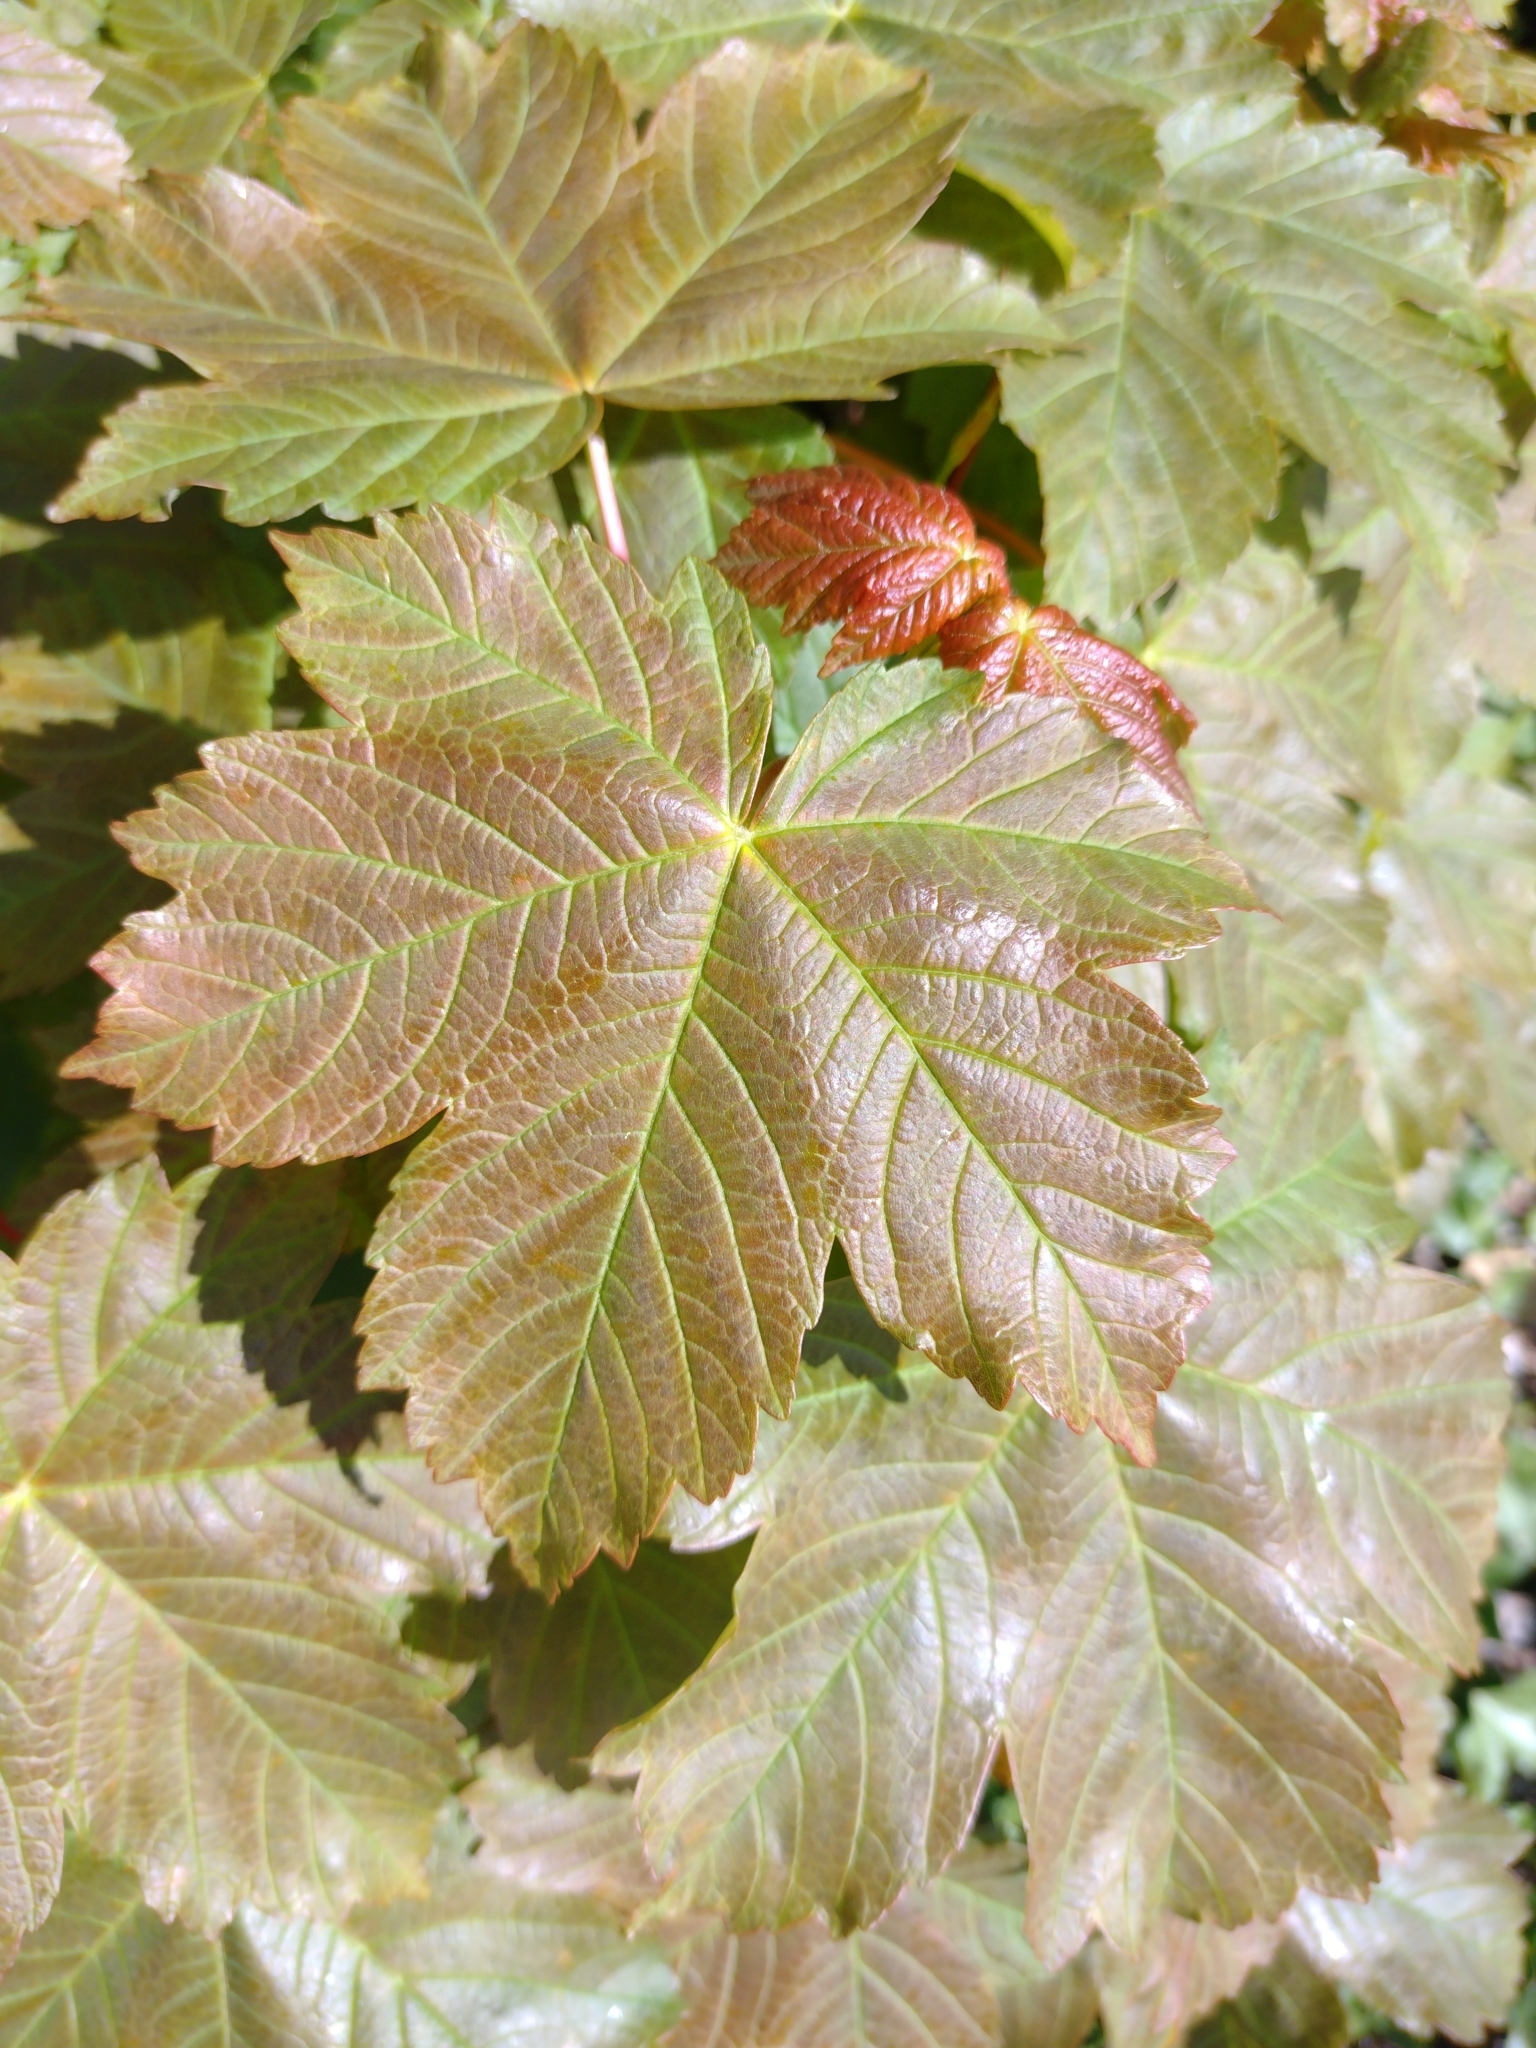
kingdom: Plantae
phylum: Tracheophyta
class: Magnoliopsida
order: Sapindales
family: Sapindaceae
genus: Acer
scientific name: Acer pseudoplatanus
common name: Sycamore
